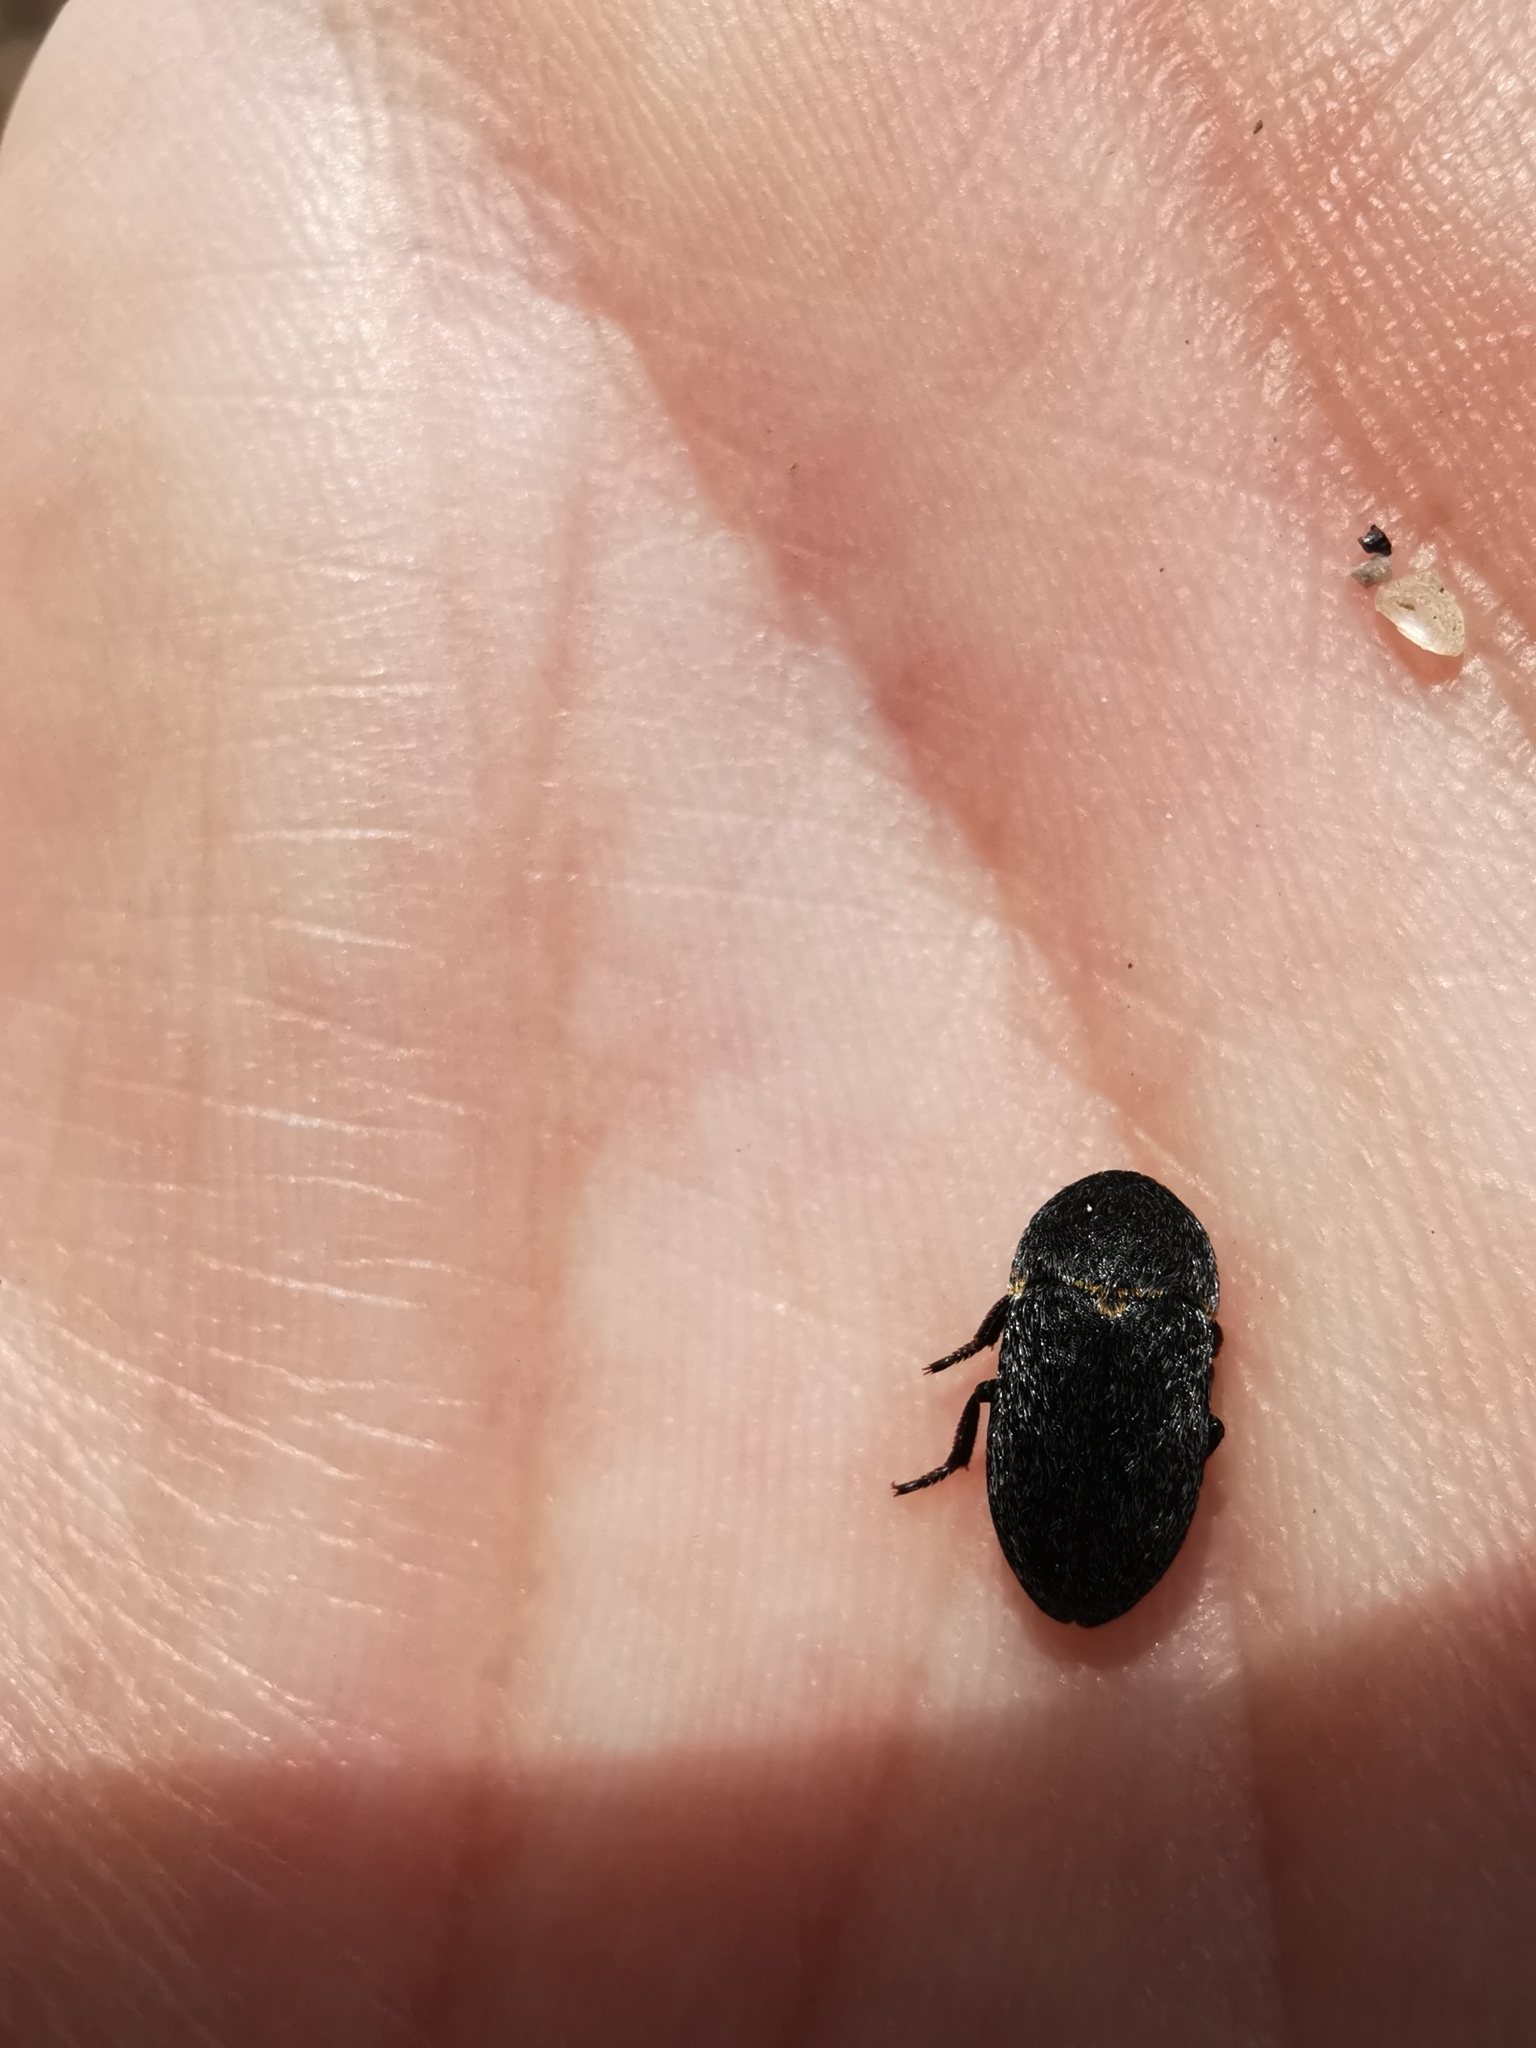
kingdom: Animalia
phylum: Arthropoda
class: Insecta
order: Coleoptera
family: Dermestidae
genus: Dermestes
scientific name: Dermestes laniarius
